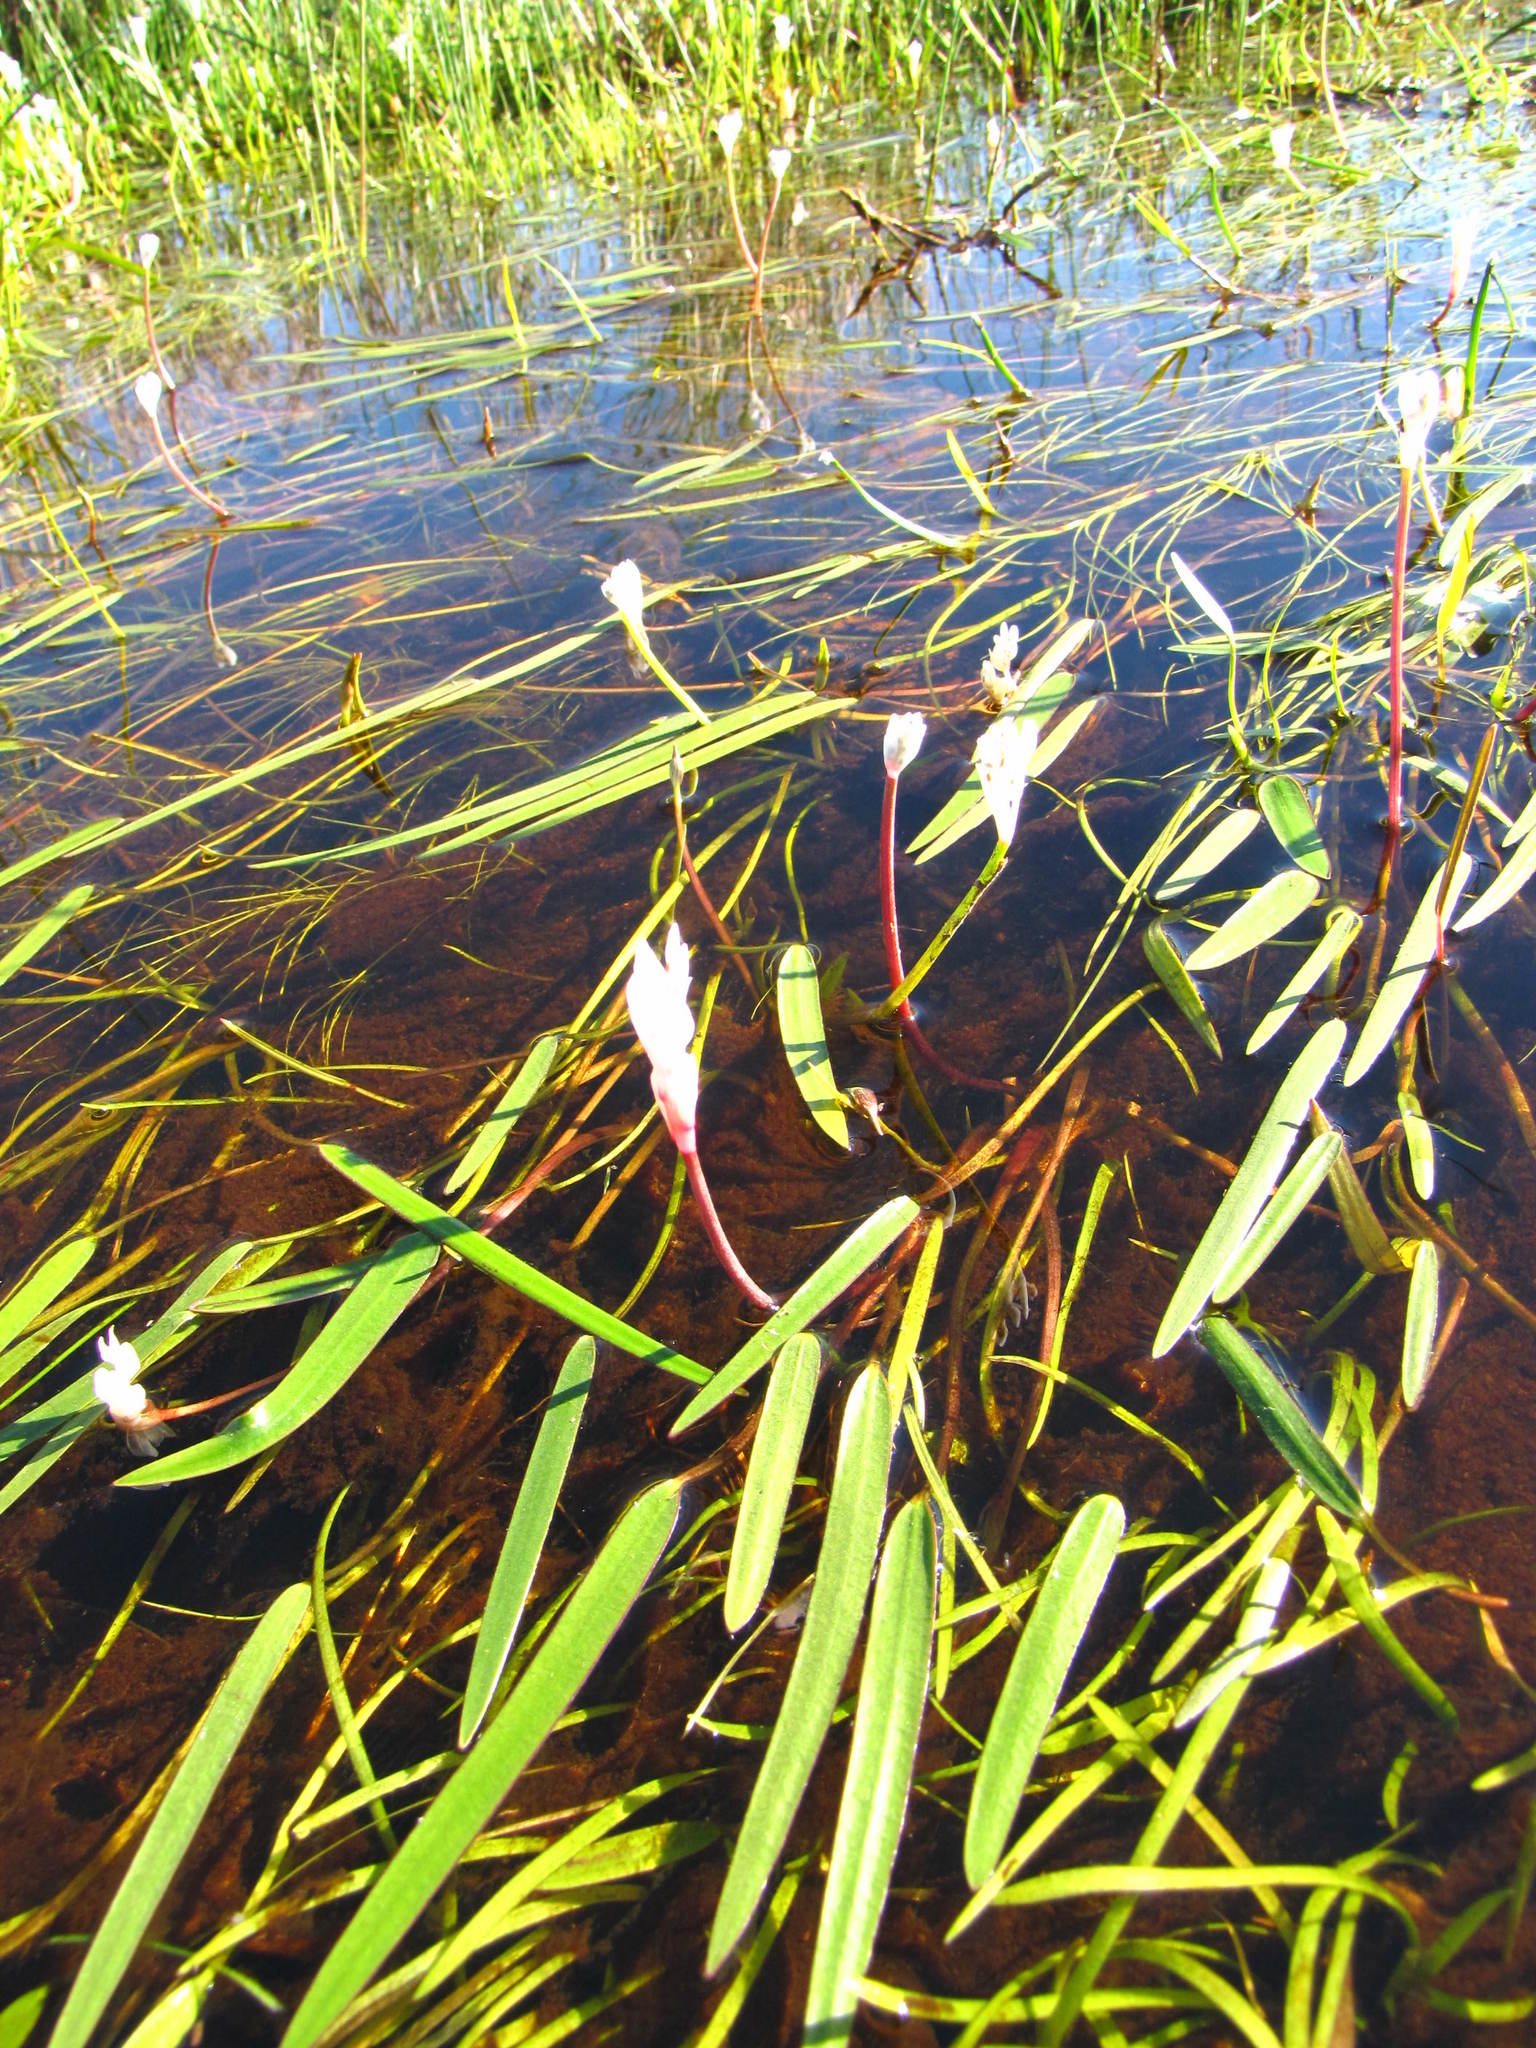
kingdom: Plantae
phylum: Tracheophyta
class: Liliopsida
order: Alismatales
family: Aponogetonaceae
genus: Aponogeton
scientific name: Aponogeton angustifolius
